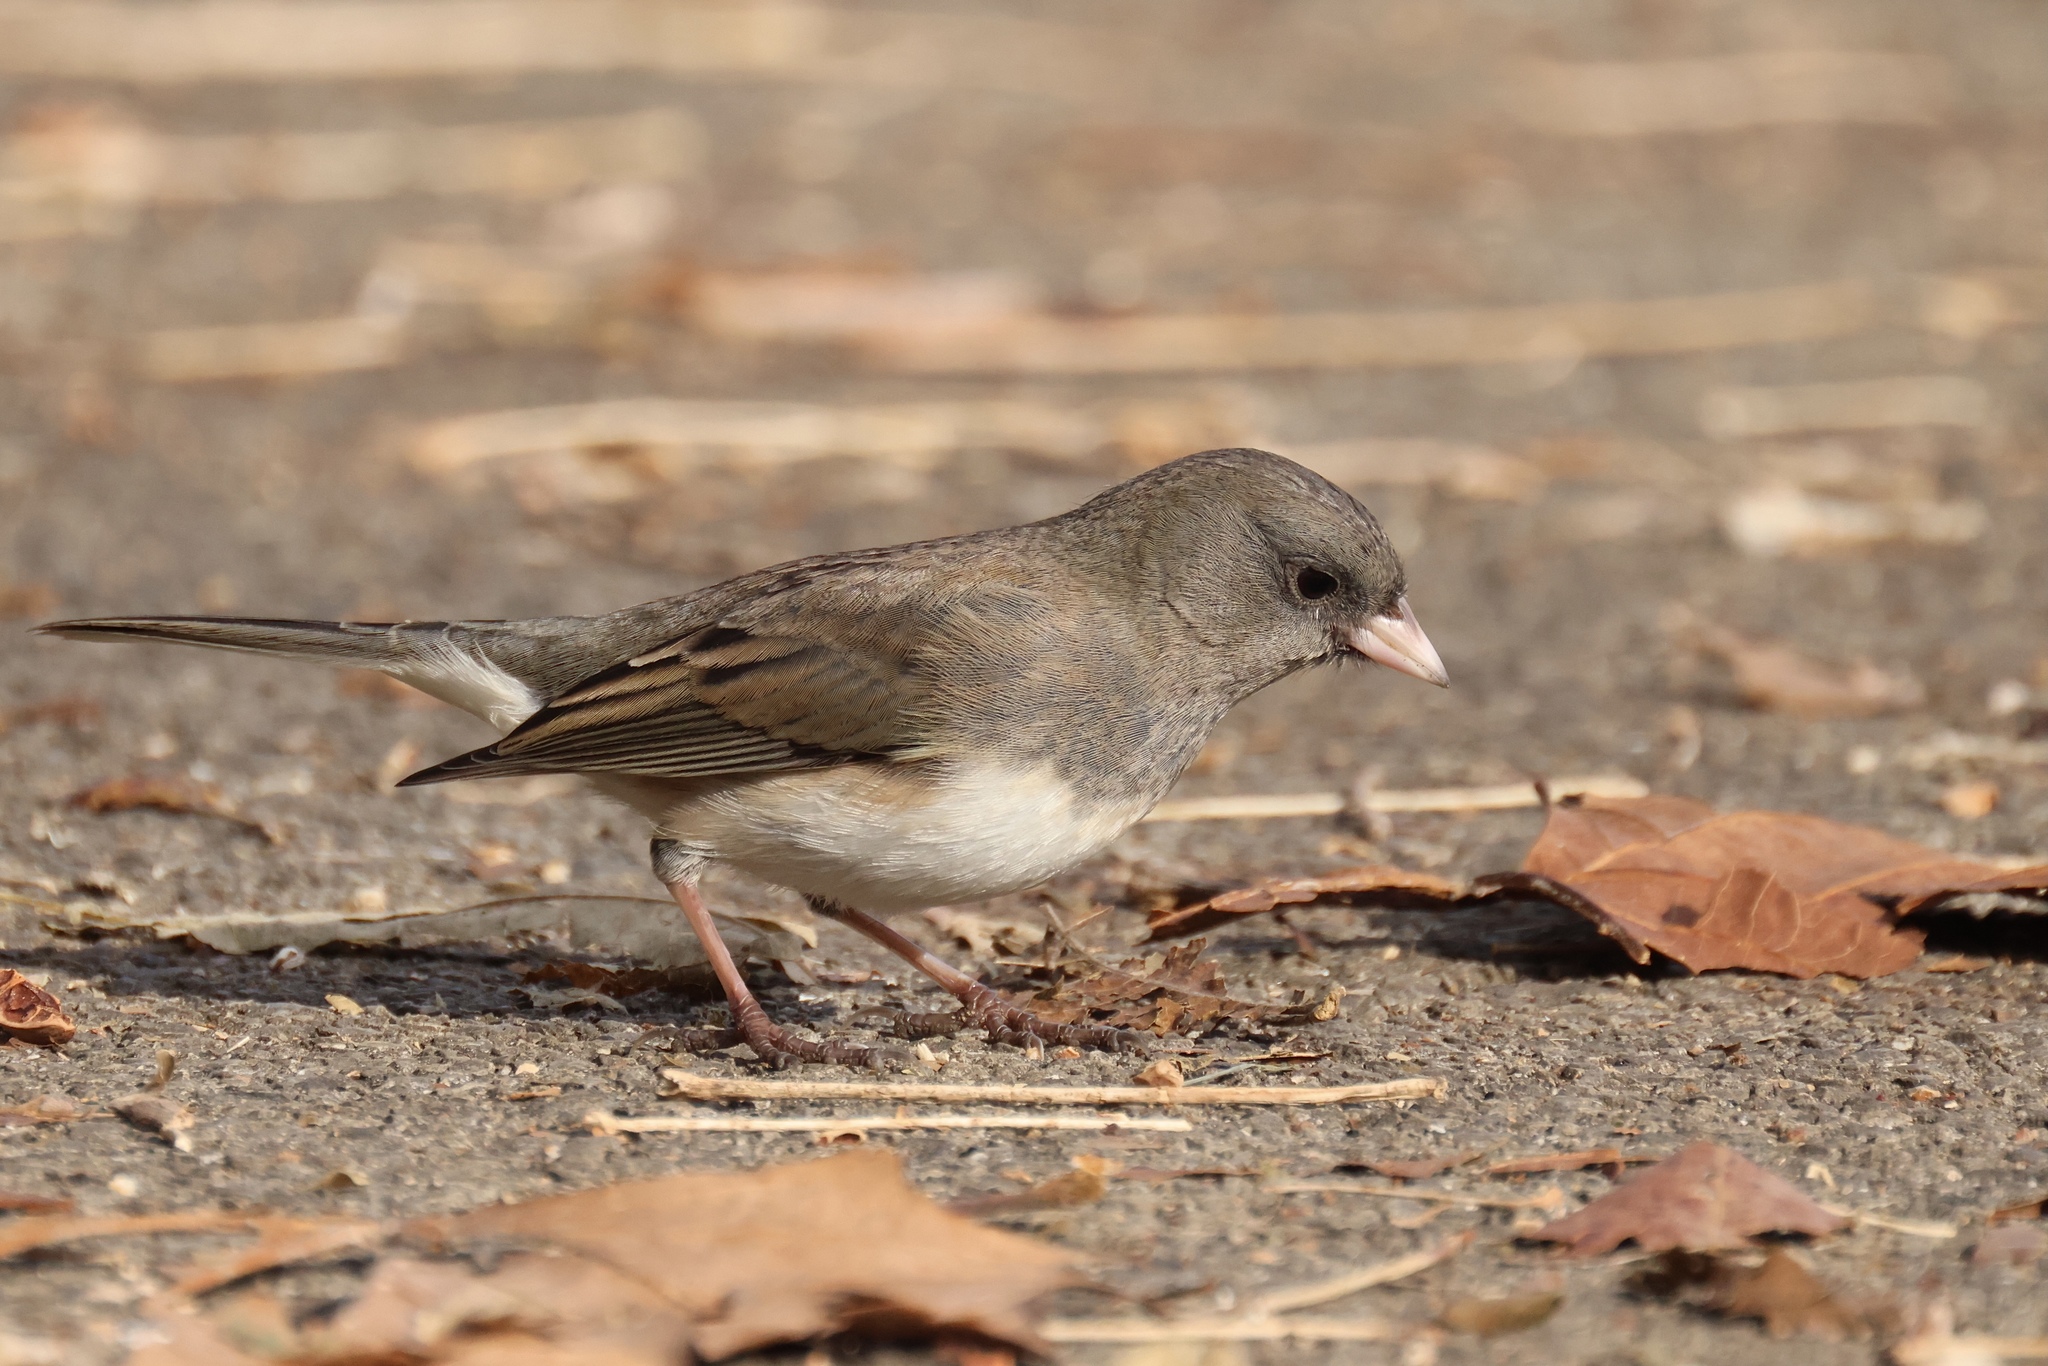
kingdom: Animalia
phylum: Chordata
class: Aves
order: Passeriformes
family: Passerellidae
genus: Junco
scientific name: Junco hyemalis
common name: Dark-eyed junco
